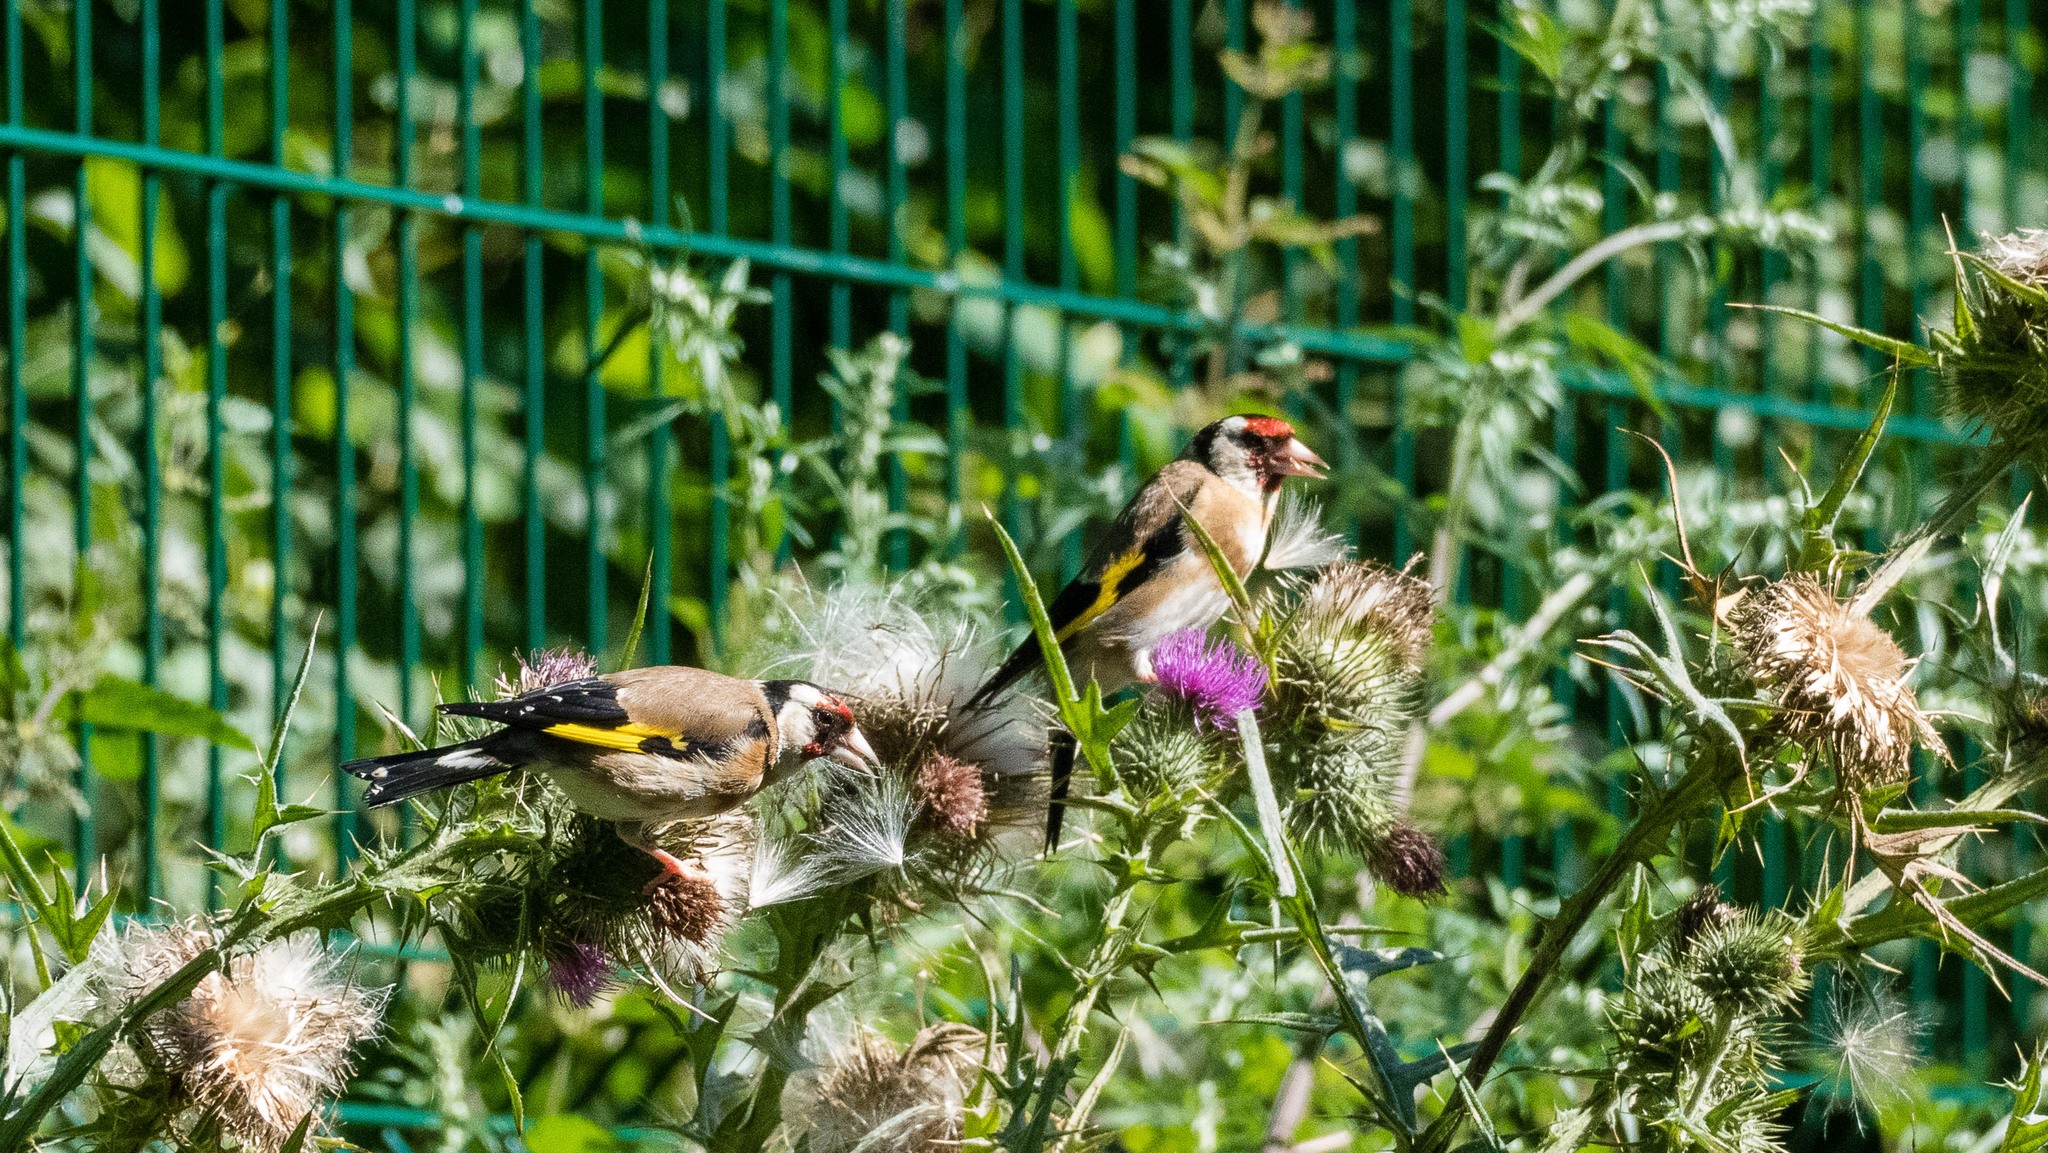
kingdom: Animalia
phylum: Chordata
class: Aves
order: Passeriformes
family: Fringillidae
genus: Carduelis
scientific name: Carduelis carduelis
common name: European goldfinch
